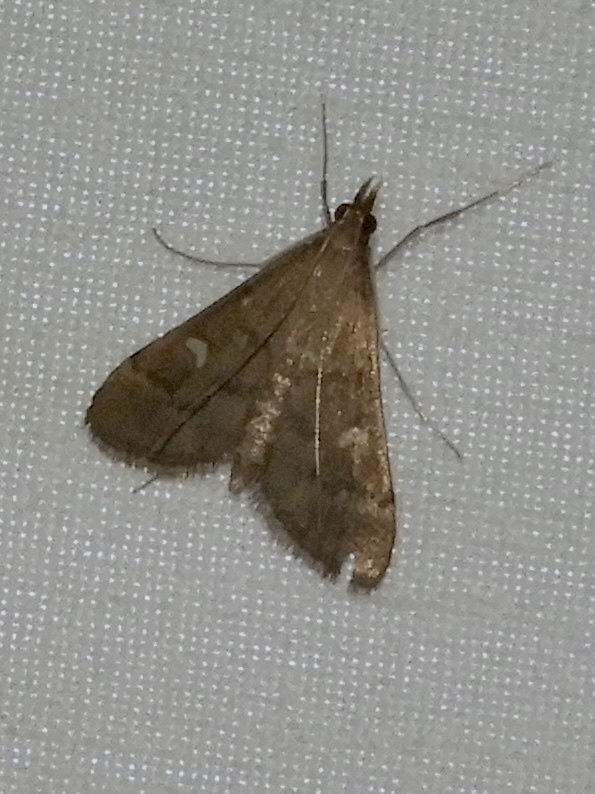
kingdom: Animalia
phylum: Arthropoda
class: Insecta
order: Lepidoptera
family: Crambidae
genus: Stenia
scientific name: Stenia Dolicharthria punctalis
